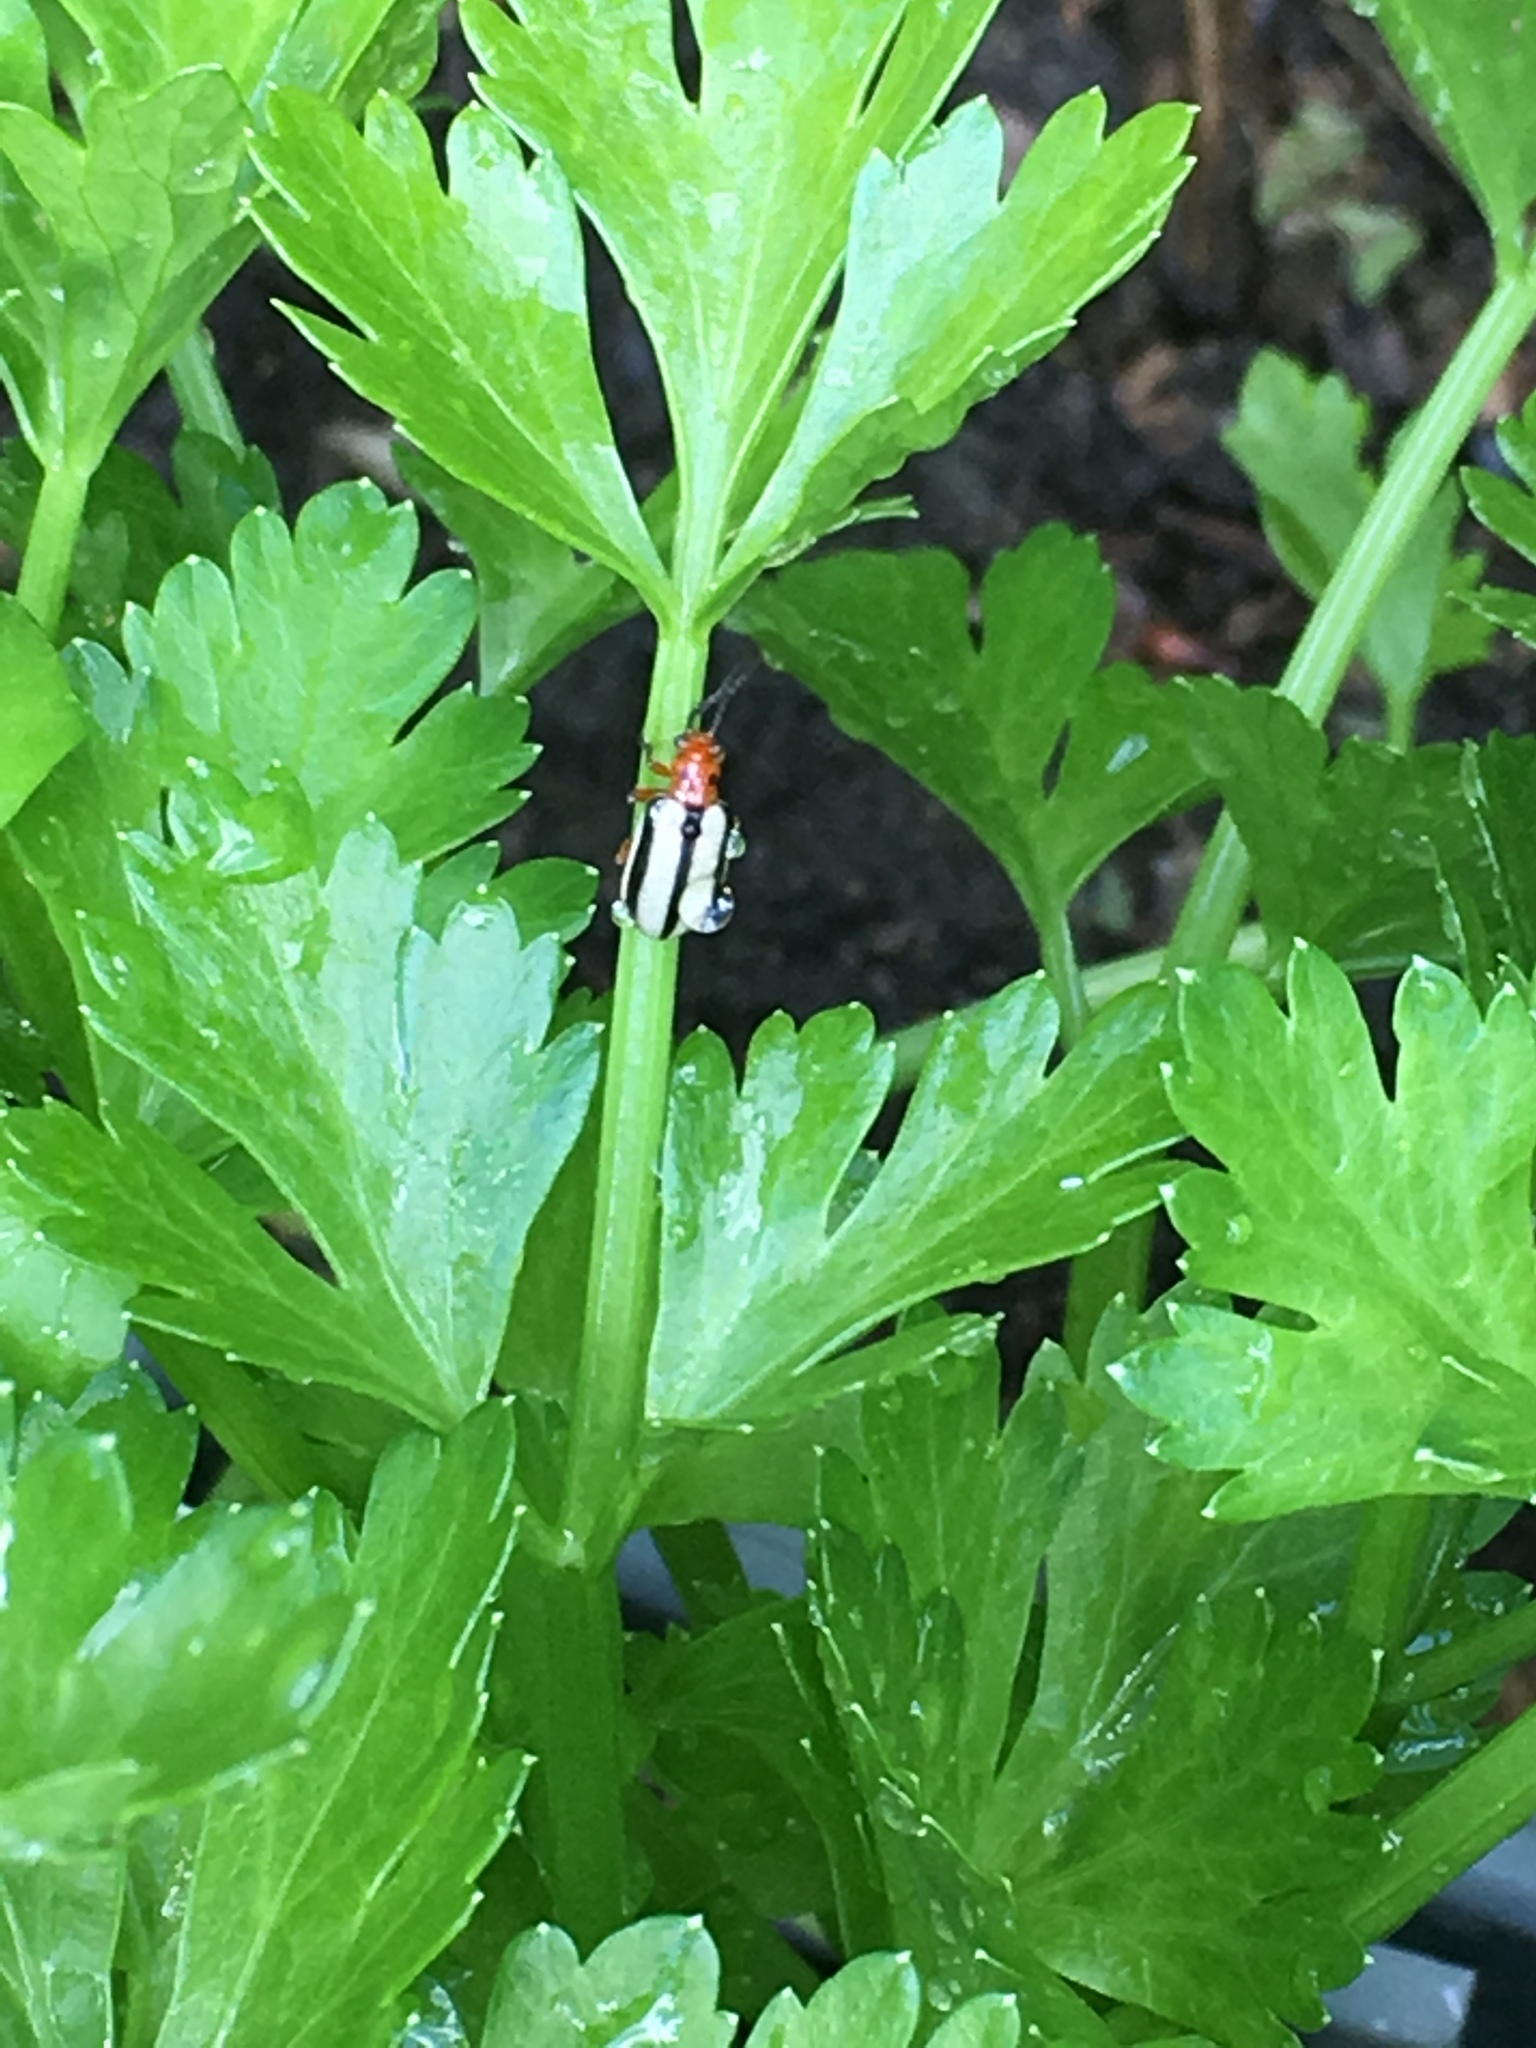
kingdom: Animalia
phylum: Arthropoda
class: Insecta
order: Coleoptera
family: Chrysomelidae
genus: Lema
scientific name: Lema daturaphila
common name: Leaf beetle
